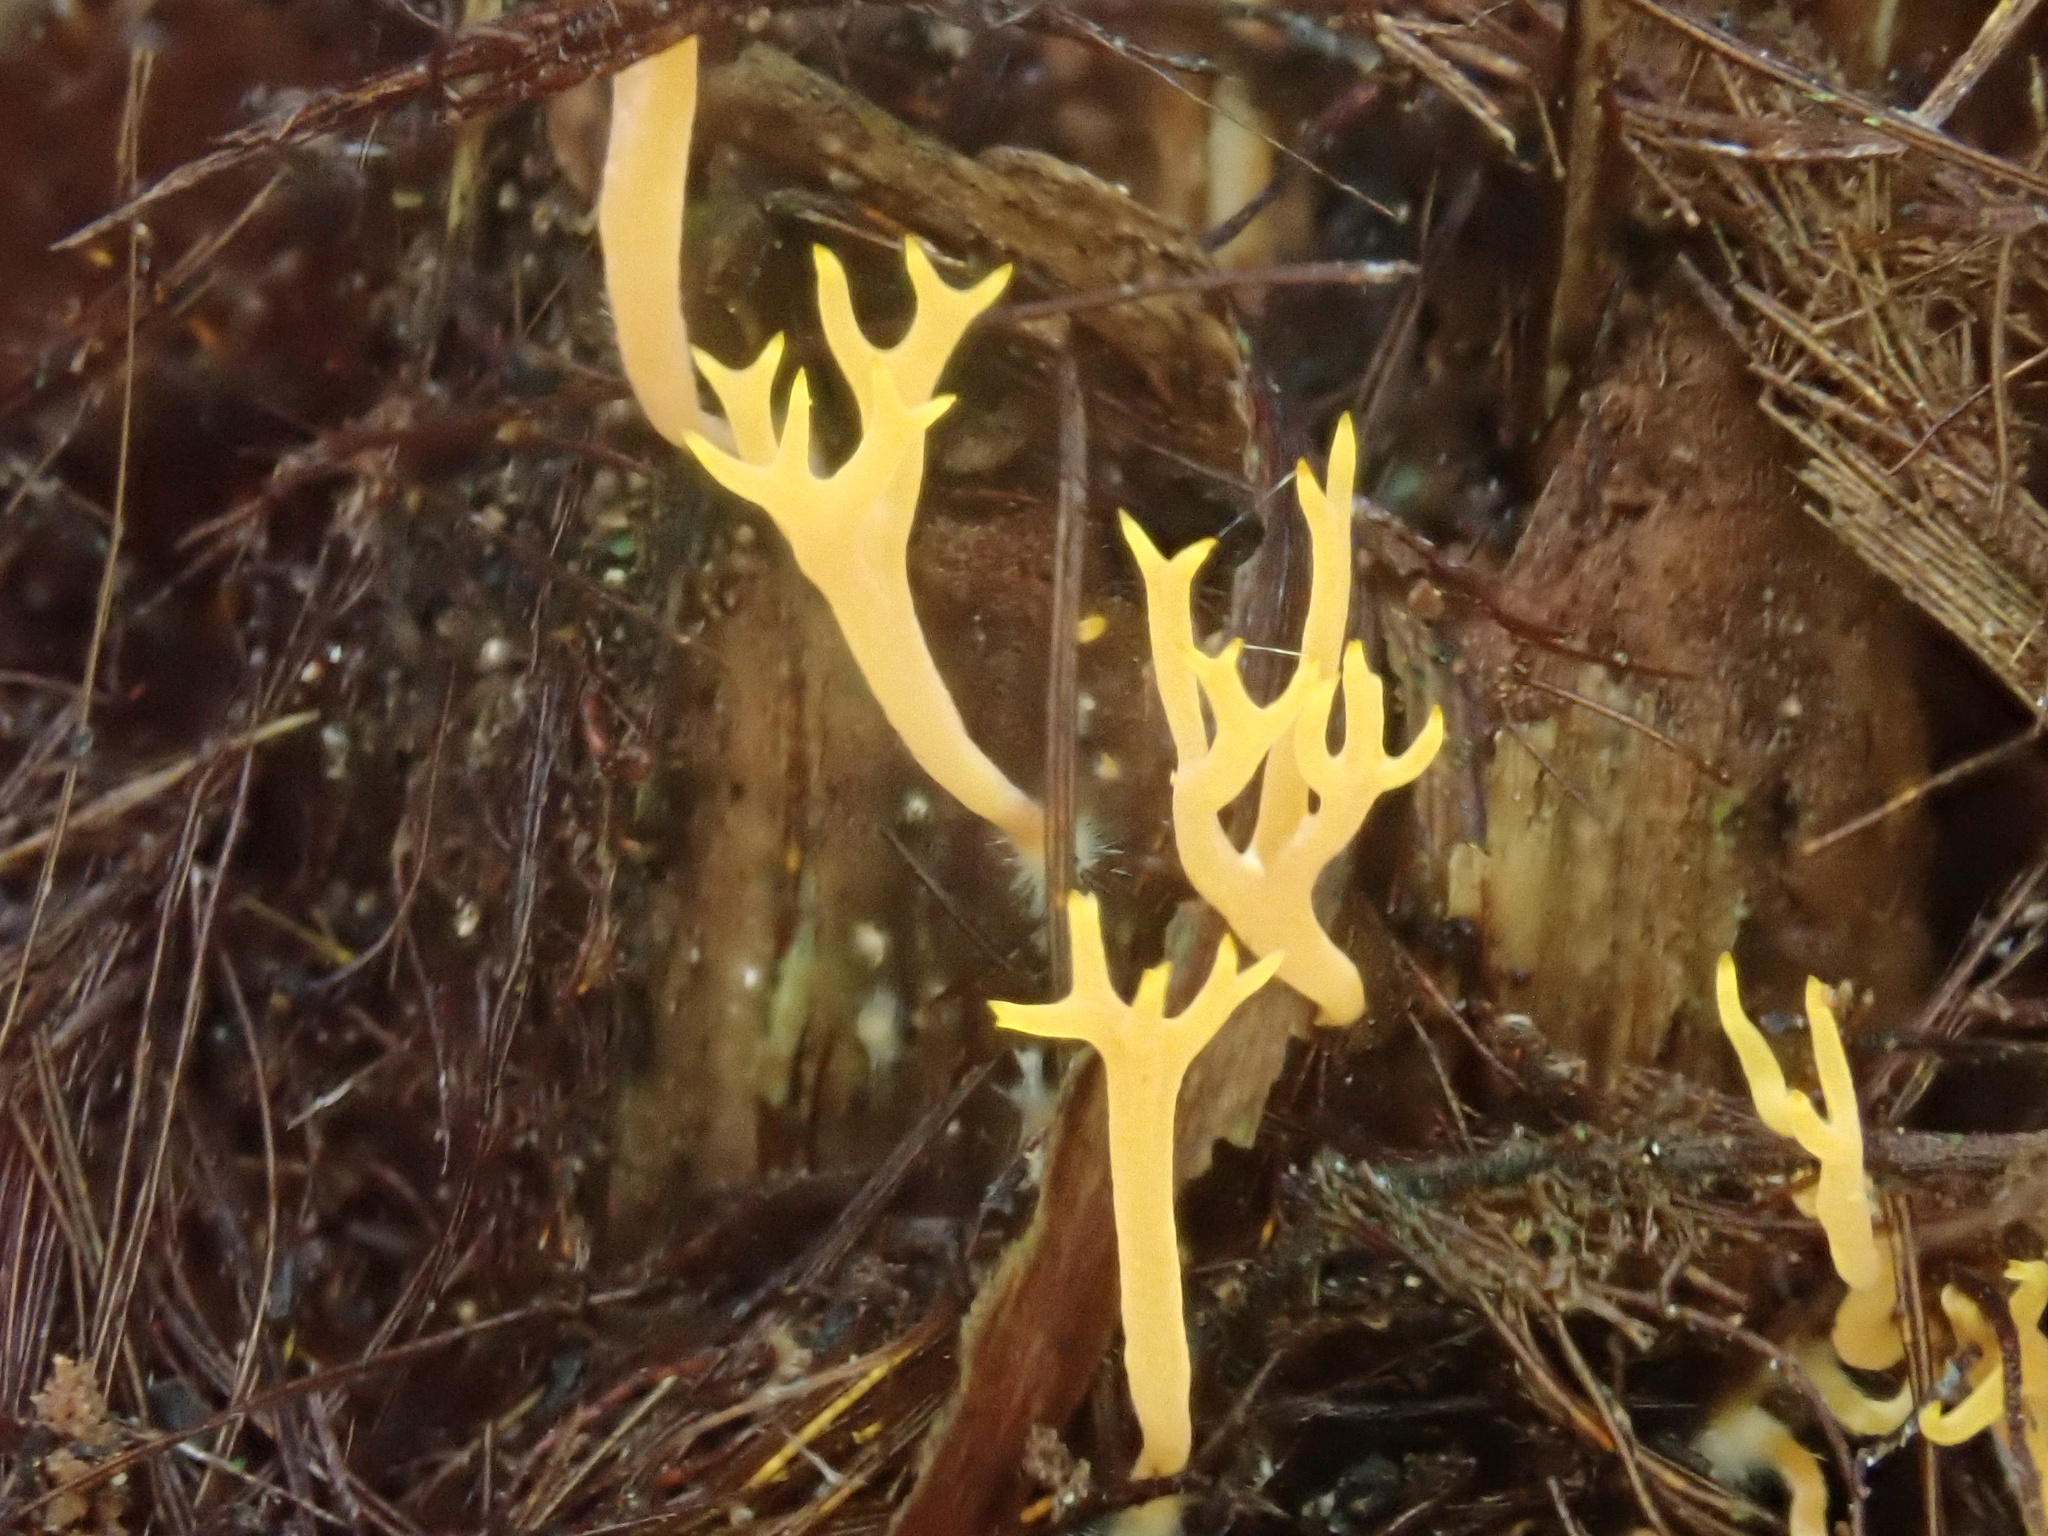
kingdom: Fungi
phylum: Basidiomycota
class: Agaricomycetes
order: Agaricales
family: Clavariaceae
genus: Ramariopsis
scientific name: Ramariopsis crocea
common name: Orange coral
